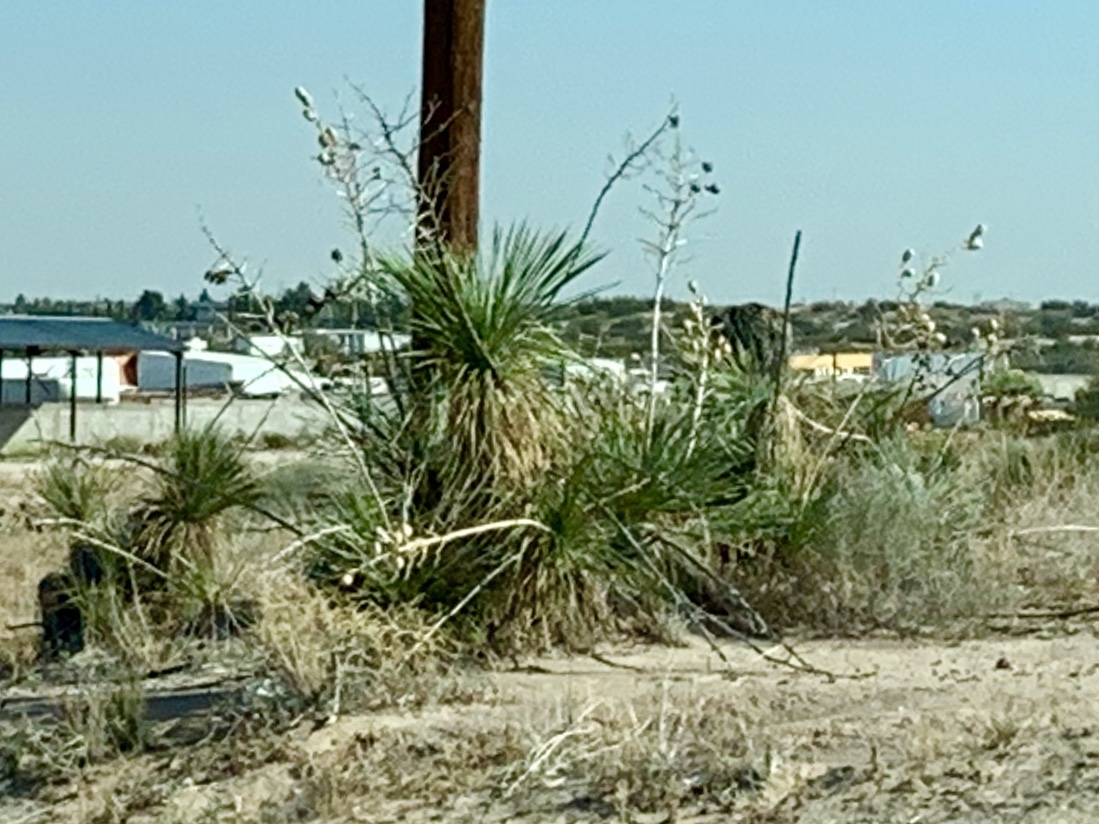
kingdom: Plantae
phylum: Tracheophyta
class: Liliopsida
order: Asparagales
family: Asparagaceae
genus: Yucca
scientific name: Yucca elata
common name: Palmella
